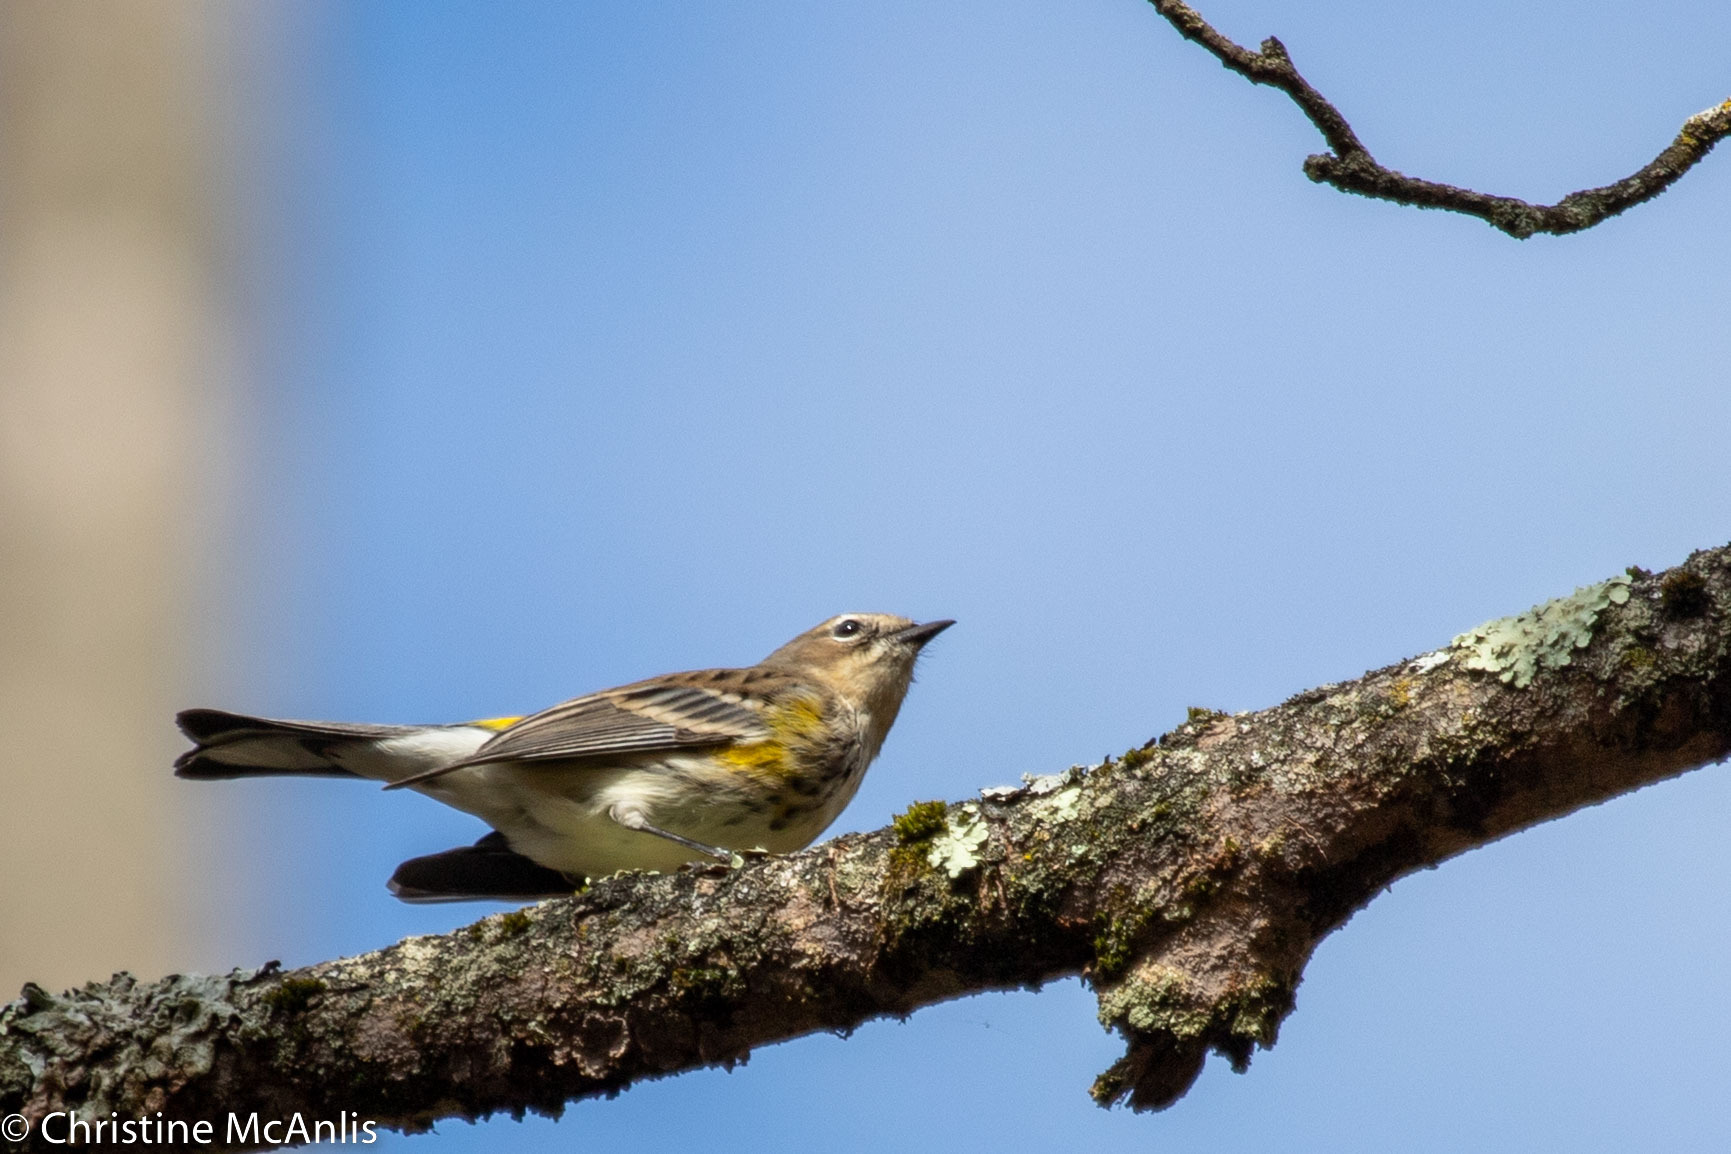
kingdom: Animalia
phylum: Chordata
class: Aves
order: Passeriformes
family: Parulidae
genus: Setophaga
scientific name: Setophaga coronata
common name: Myrtle warbler
